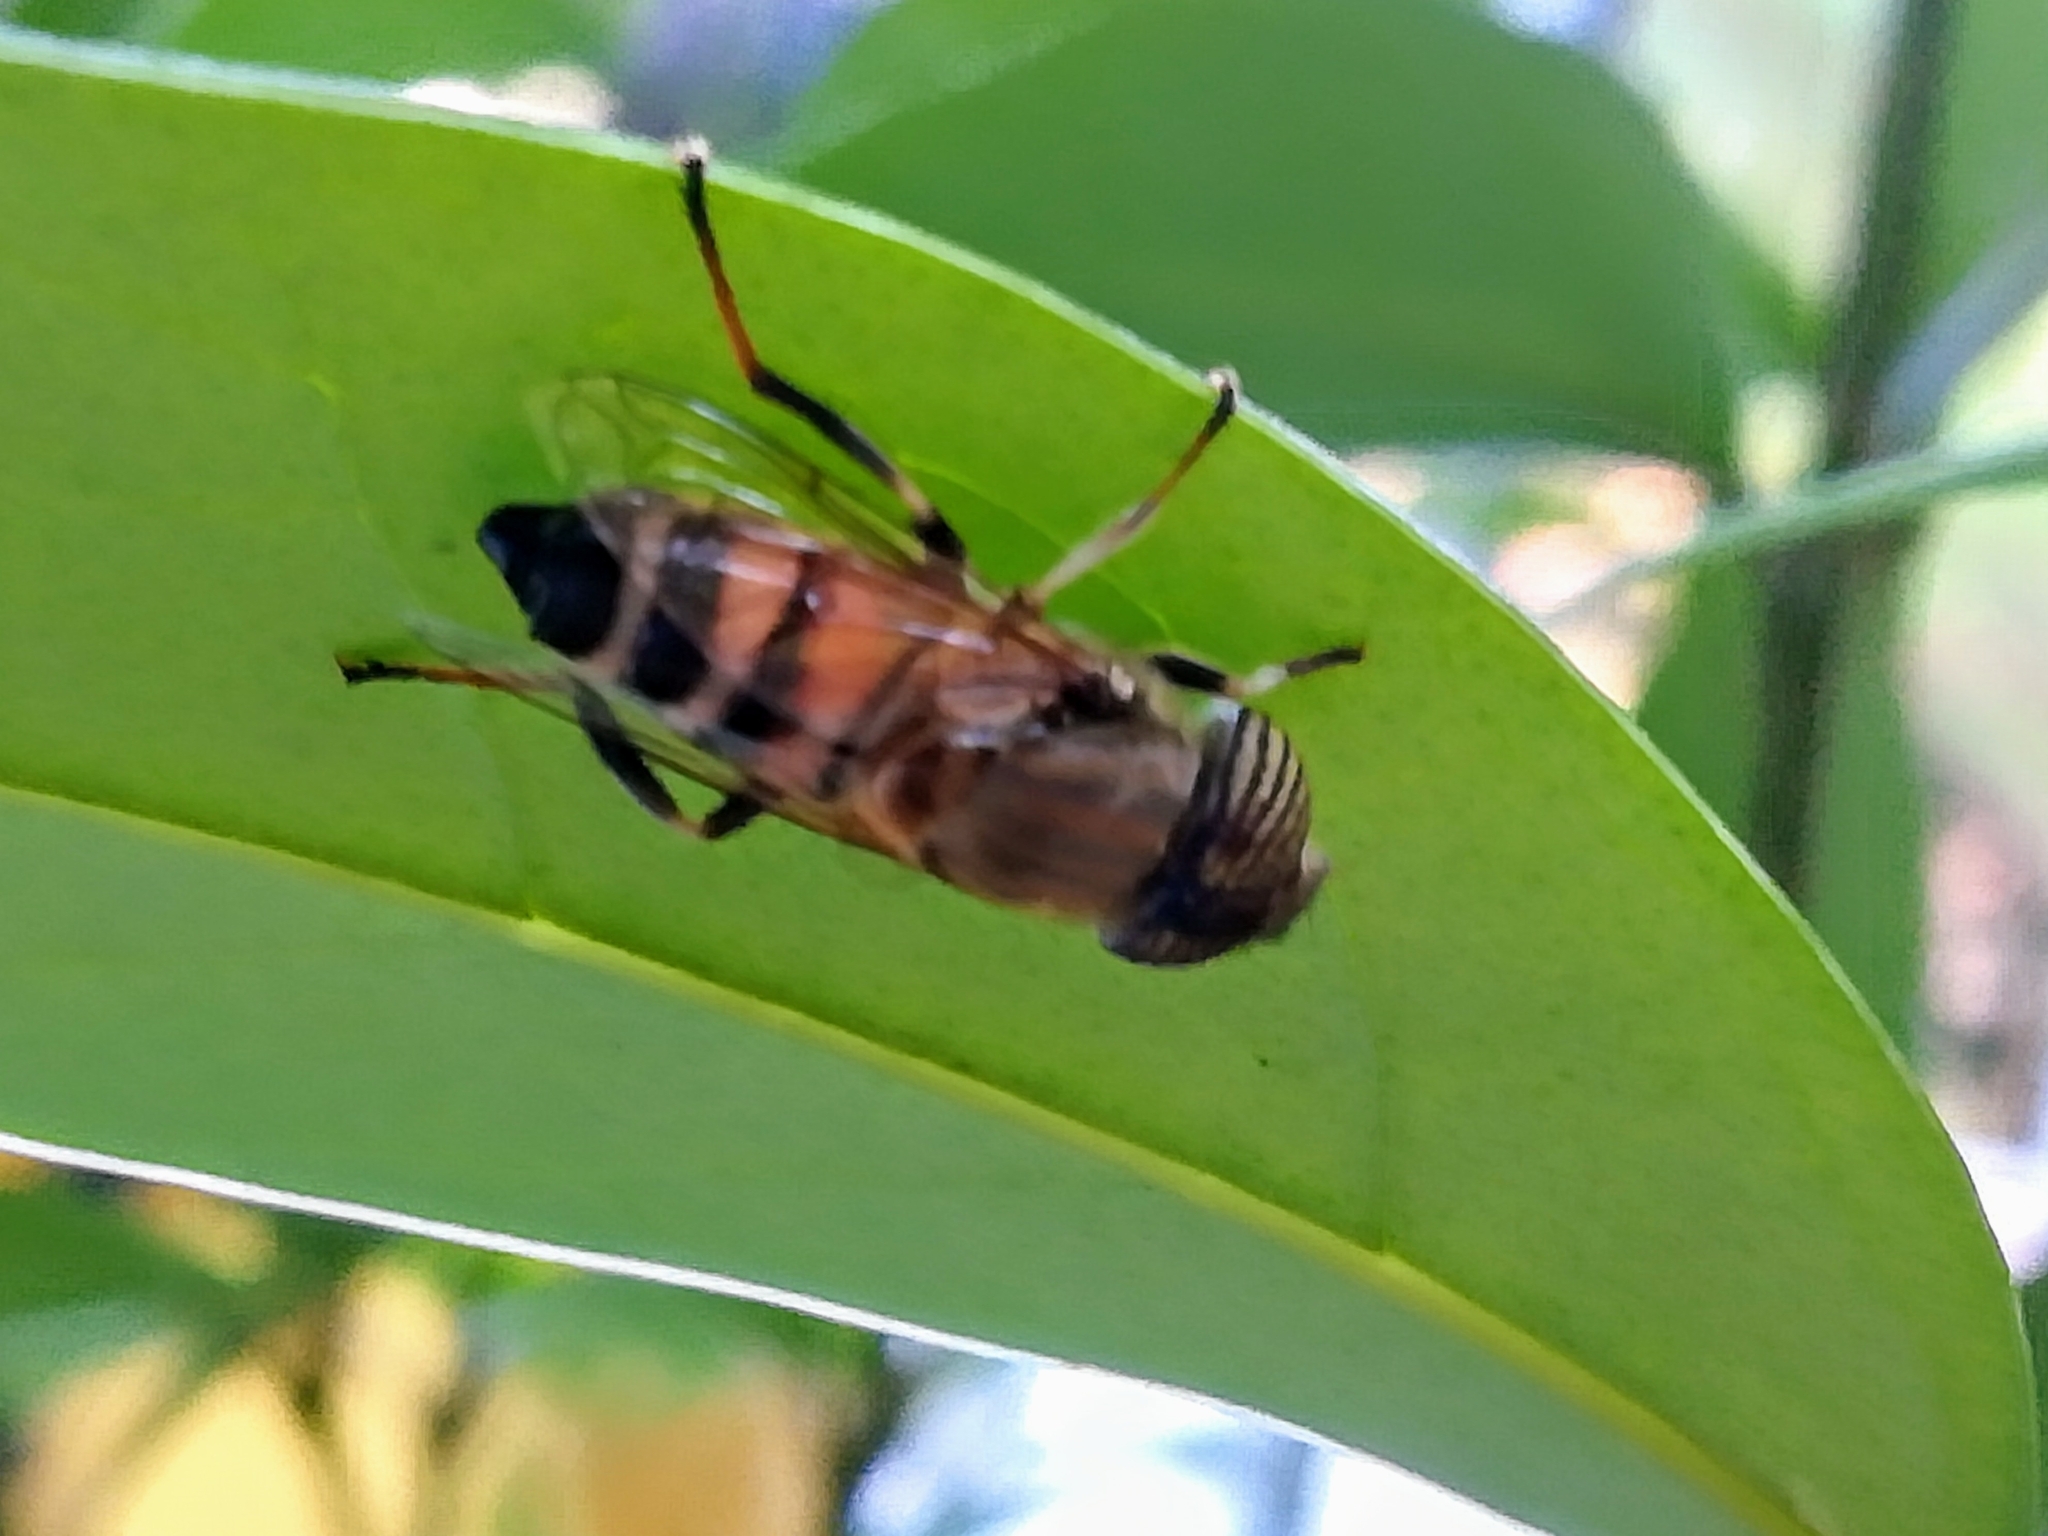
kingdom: Animalia
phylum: Arthropoda
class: Insecta
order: Diptera
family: Syrphidae
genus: Eristalinus
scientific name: Eristalinus taeniops
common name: Syrphid fly
